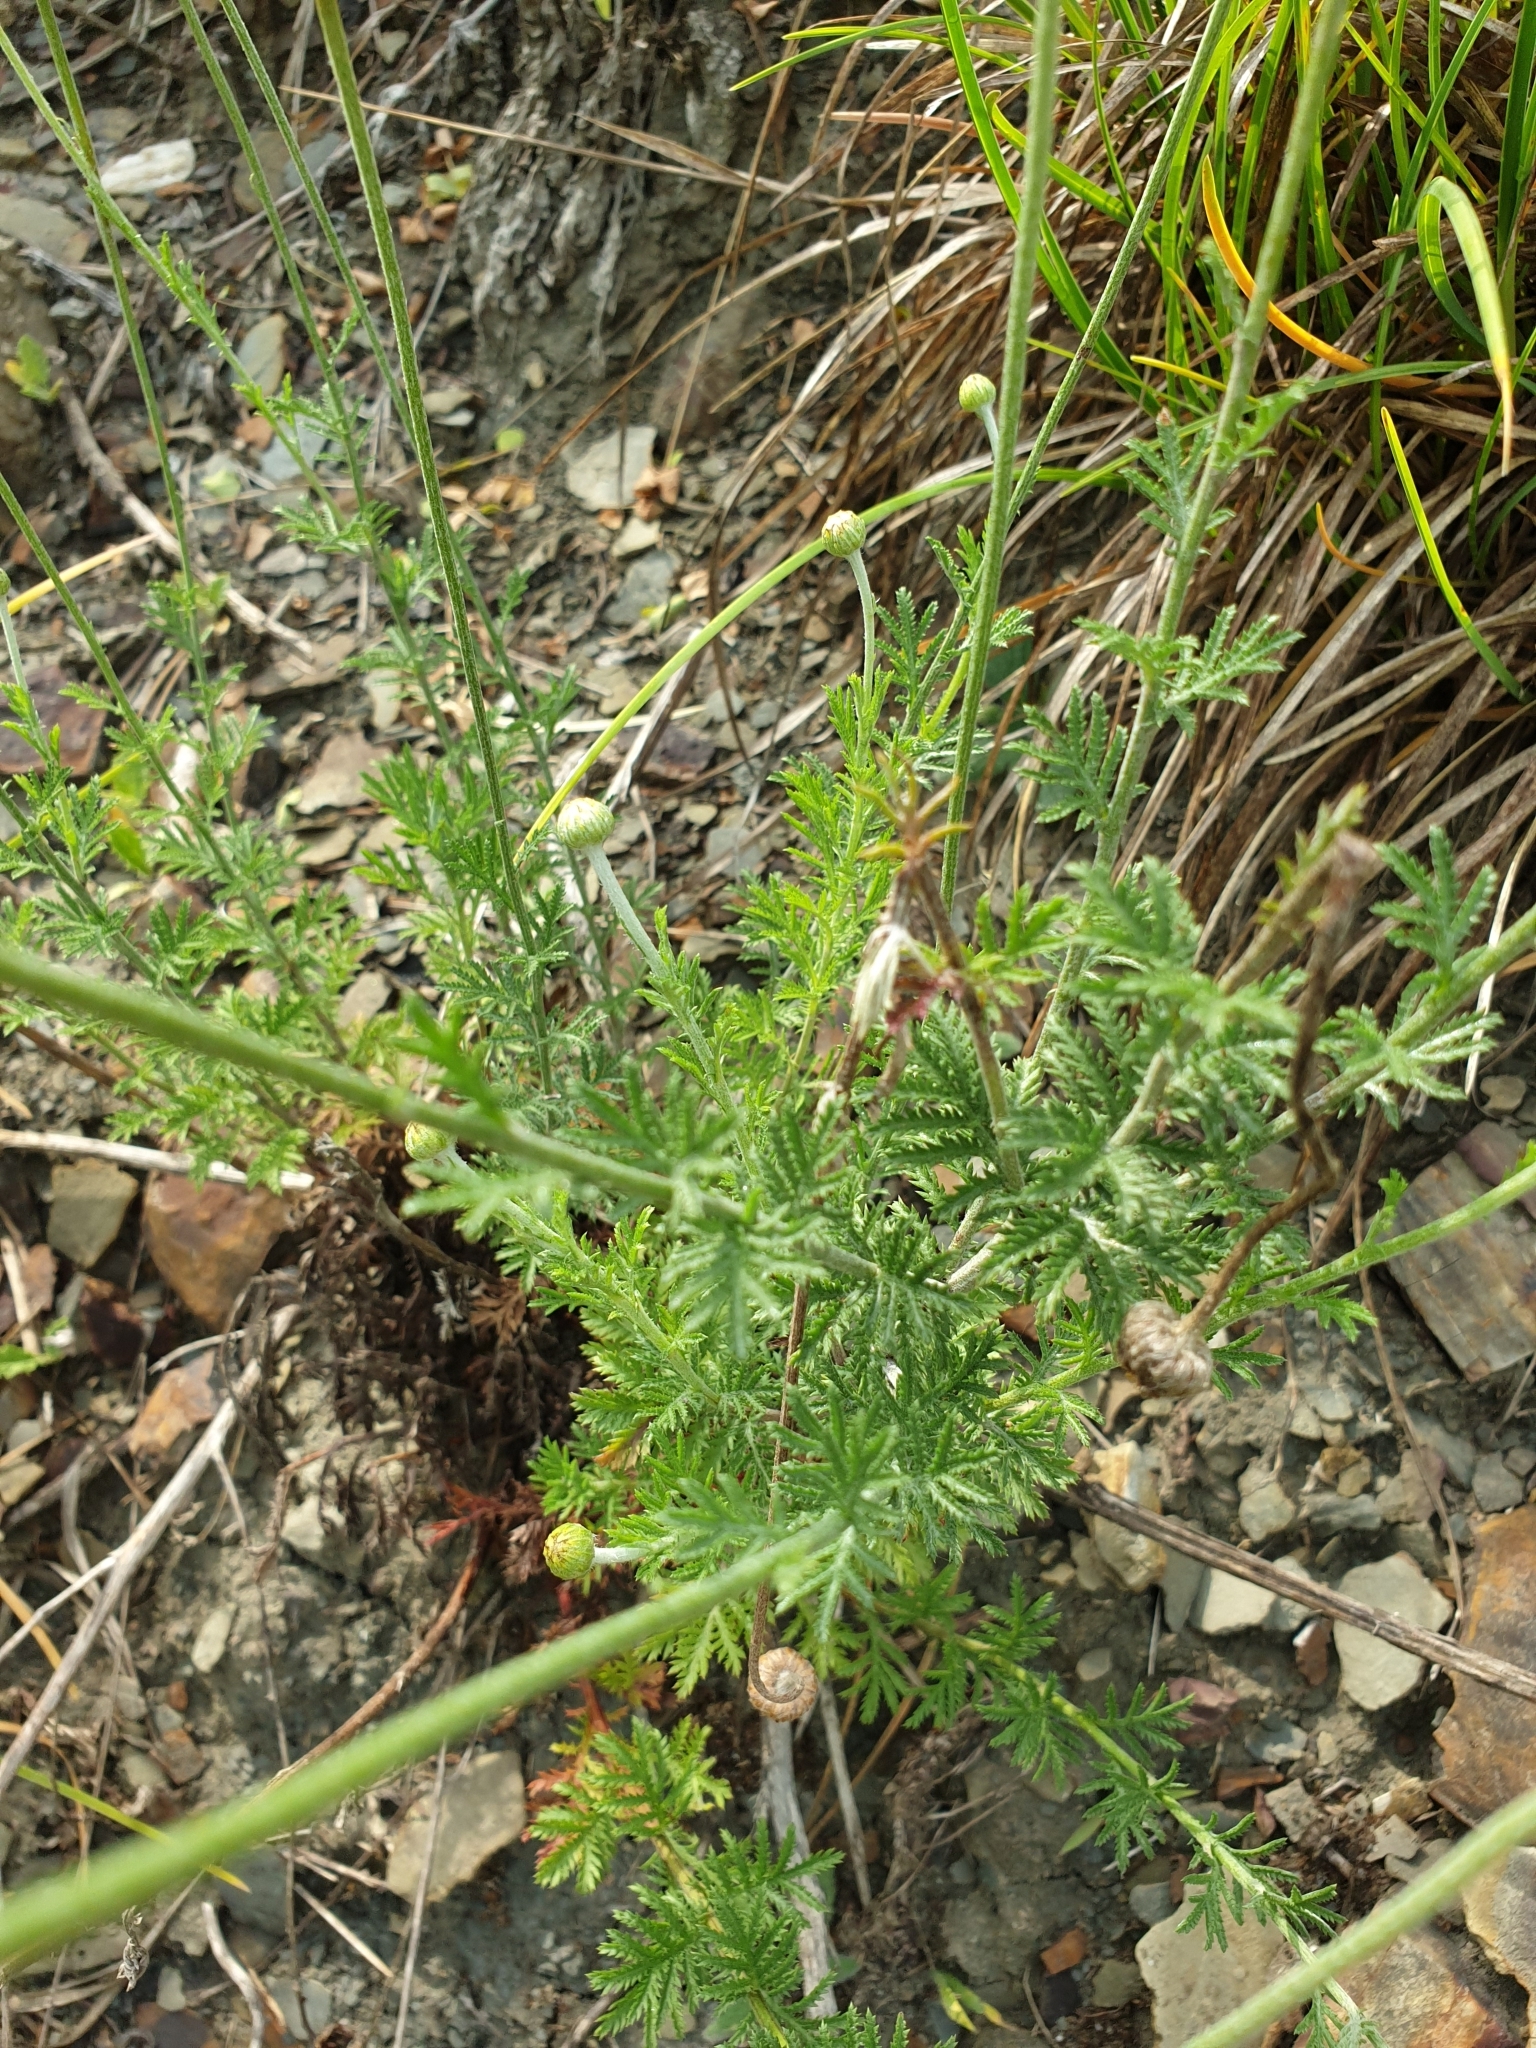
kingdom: Plantae
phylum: Tracheophyta
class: Magnoliopsida
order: Asterales
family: Asteraceae
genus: Cota
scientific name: Cota tinctoria
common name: Golden chamomile
